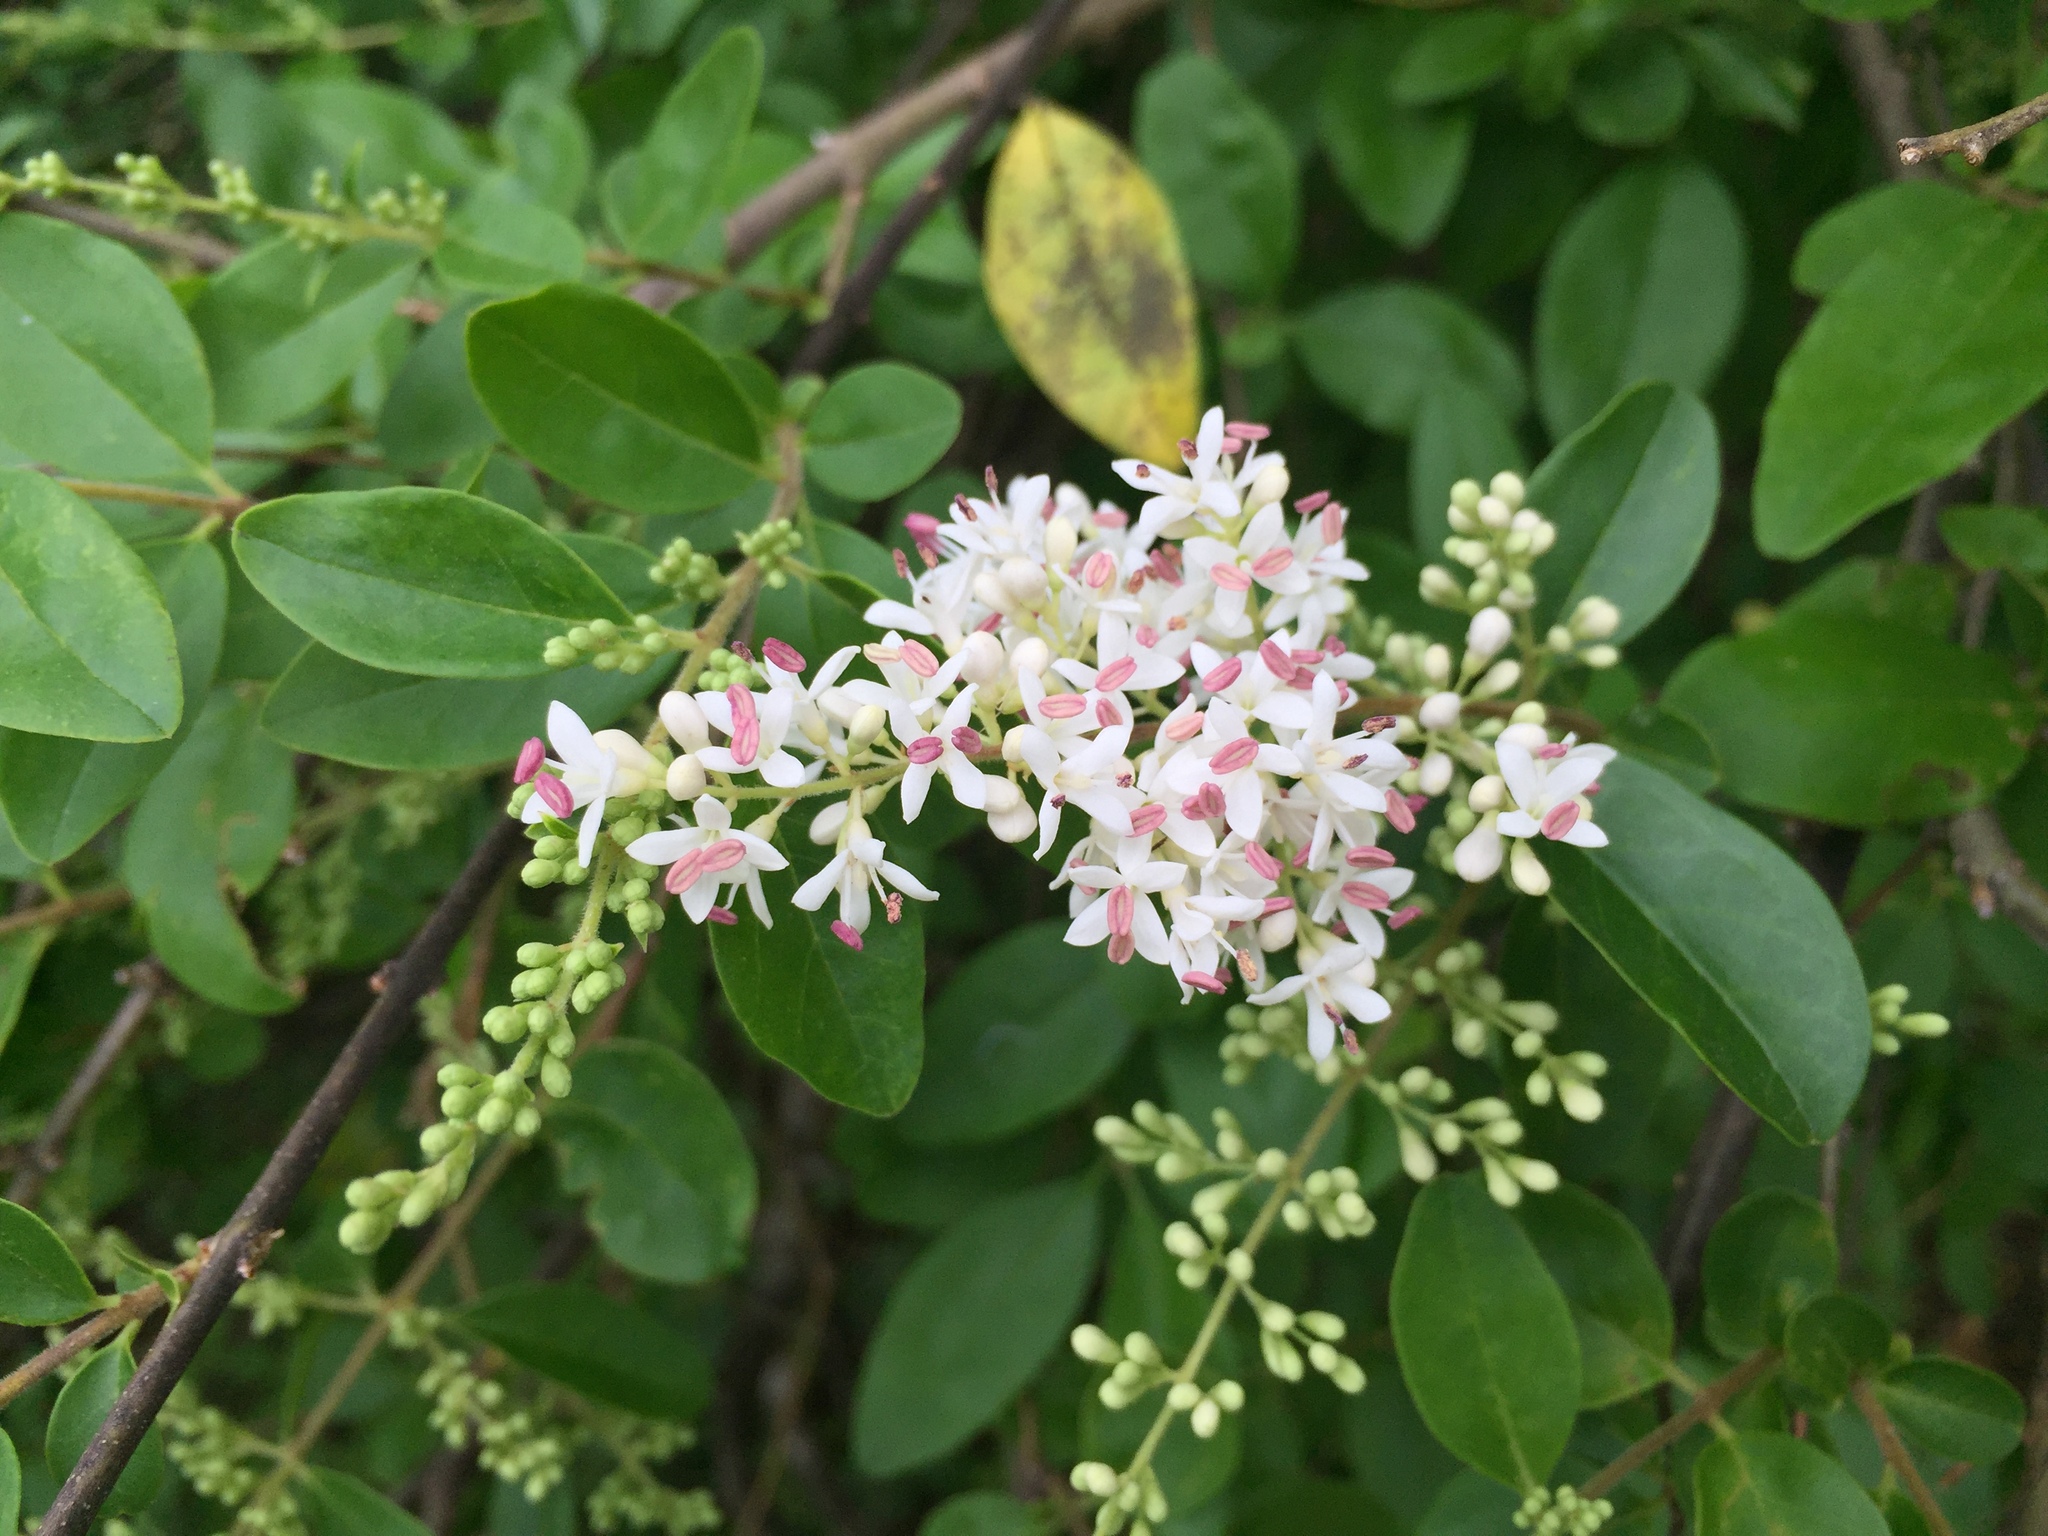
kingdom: Plantae
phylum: Tracheophyta
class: Magnoliopsida
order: Lamiales
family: Oleaceae
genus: Ligustrum
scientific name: Ligustrum sinense
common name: Chinese privet
